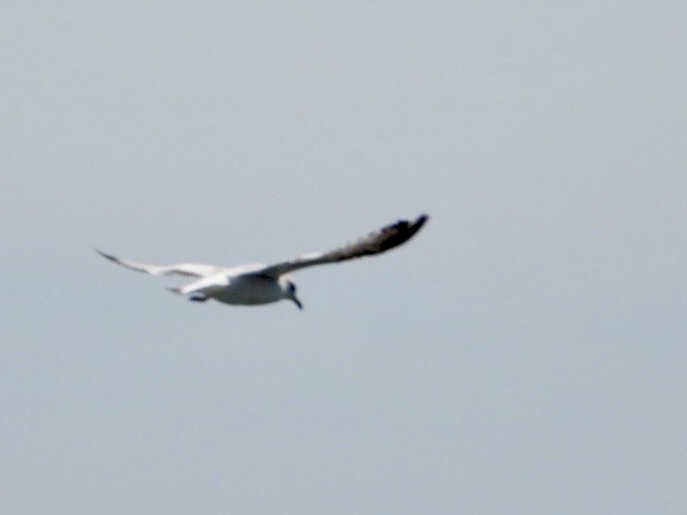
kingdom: Animalia
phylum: Chordata
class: Aves
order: Charadriiformes
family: Laridae
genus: Larus
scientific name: Larus delawarensis
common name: Ring-billed gull
